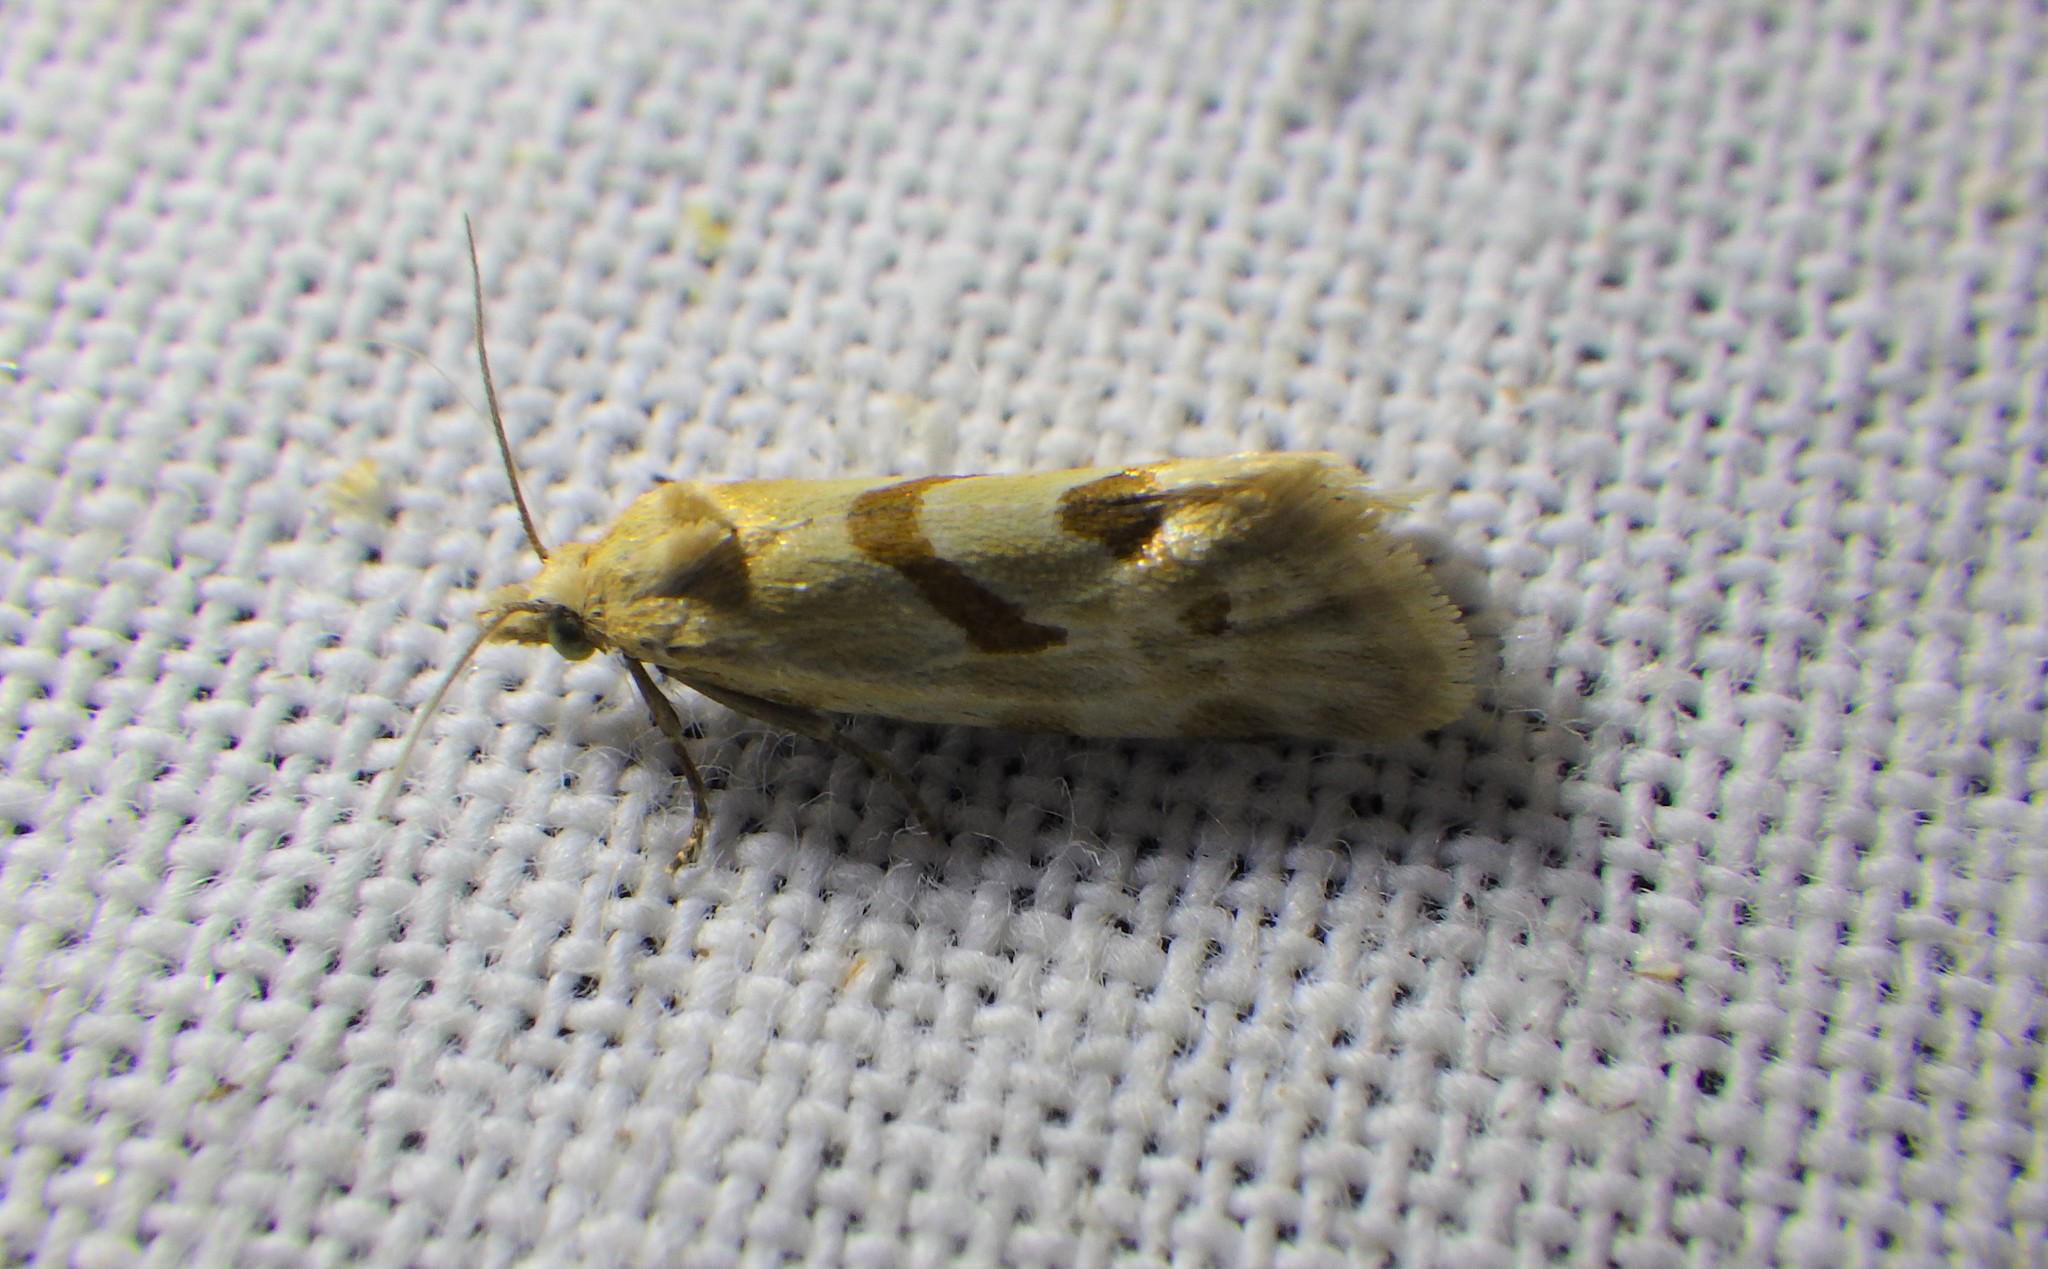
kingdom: Animalia
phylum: Arthropoda
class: Insecta
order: Lepidoptera
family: Tortricidae
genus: Aethes
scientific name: Aethes smeathmanniana
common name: Yarrow conch
